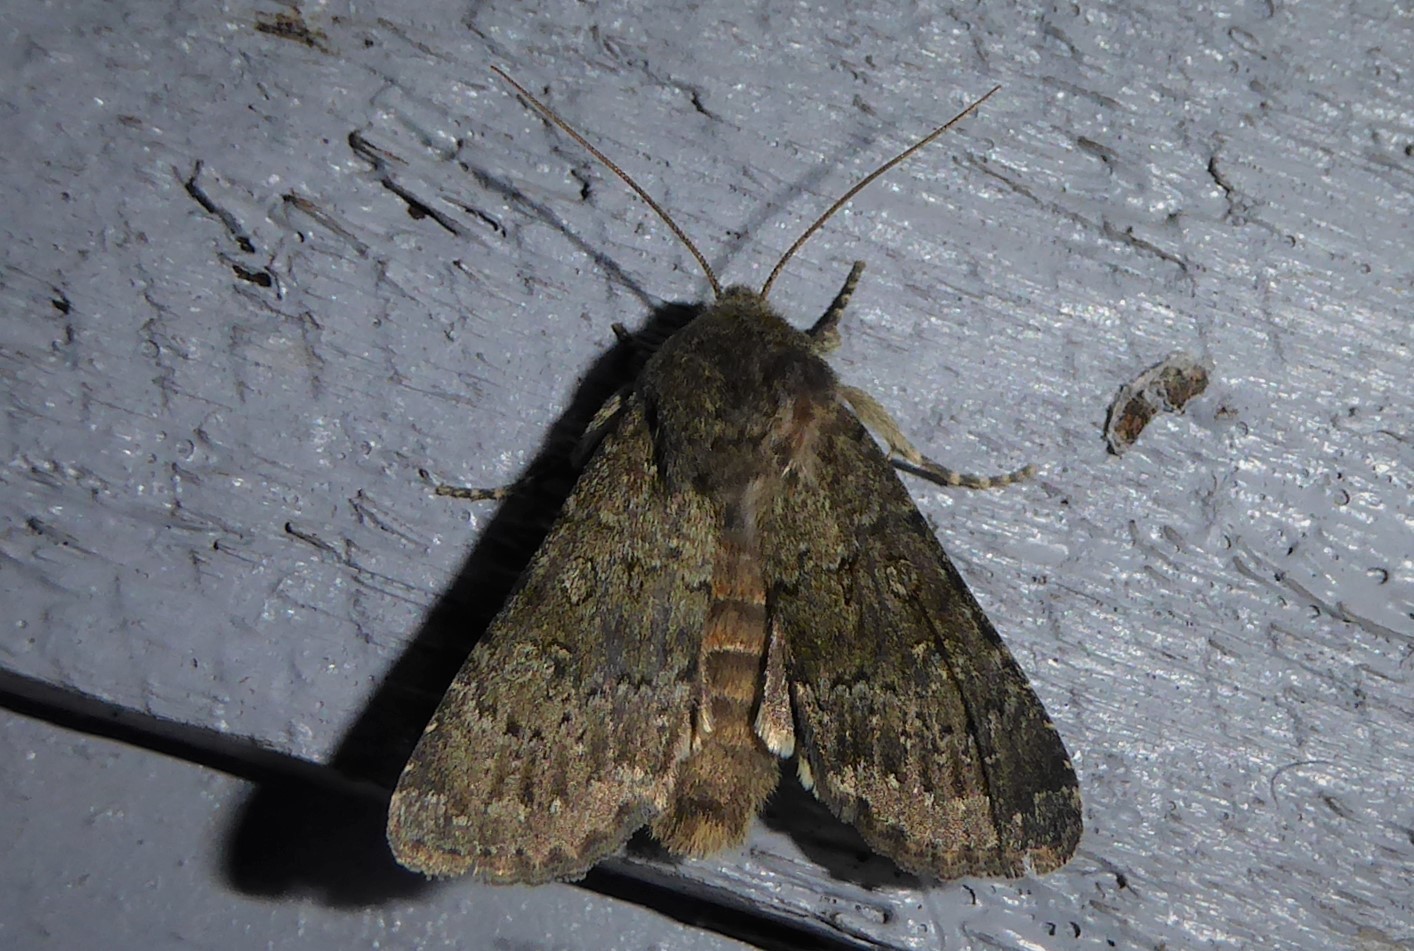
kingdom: Animalia
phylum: Arthropoda
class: Insecta
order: Lepidoptera
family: Noctuidae
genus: Ichneutica
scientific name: Ichneutica moderata
